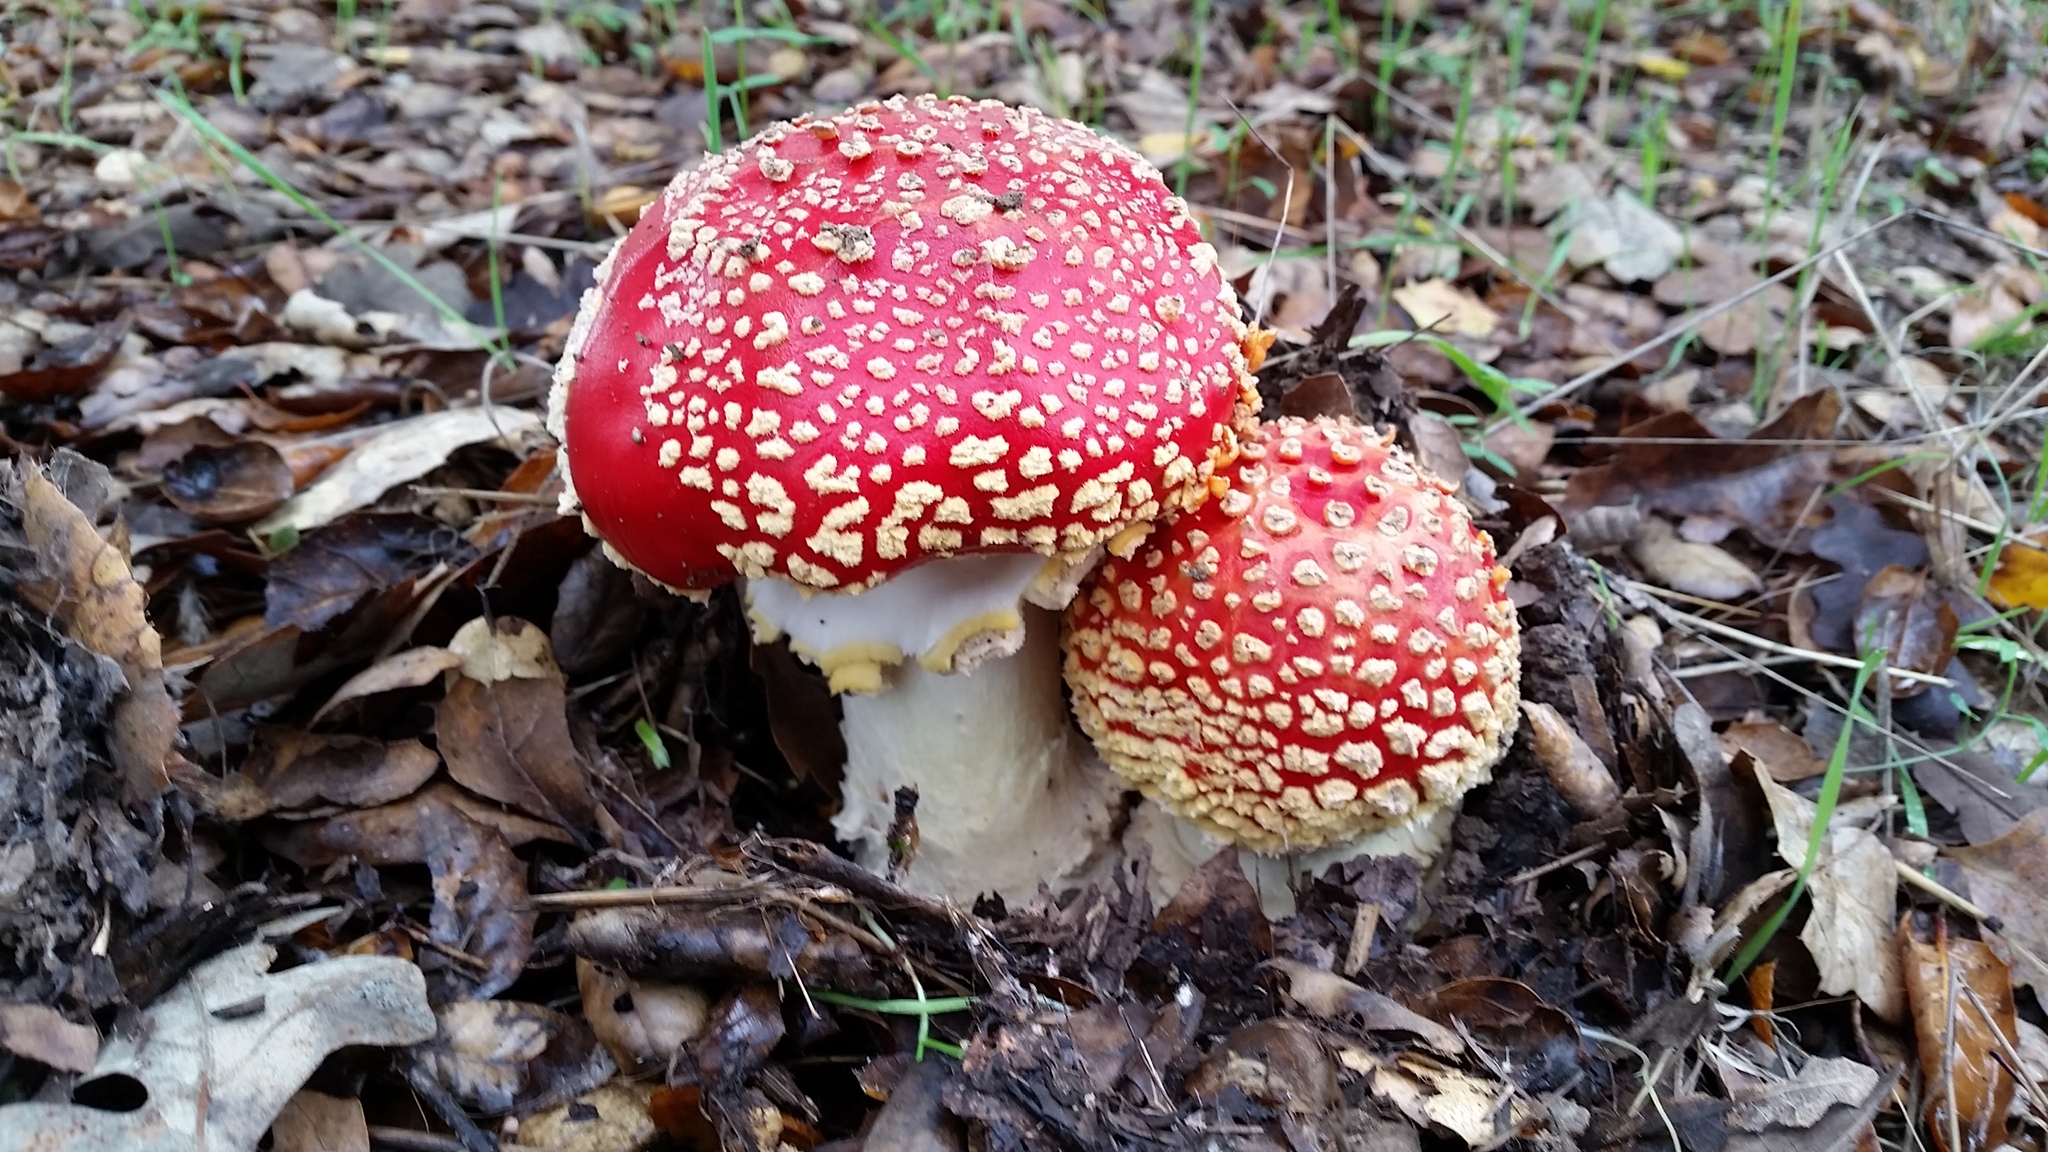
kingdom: Fungi
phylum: Basidiomycota
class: Agaricomycetes
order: Agaricales
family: Amanitaceae
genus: Amanita
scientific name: Amanita muscaria
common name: Fly agaric
